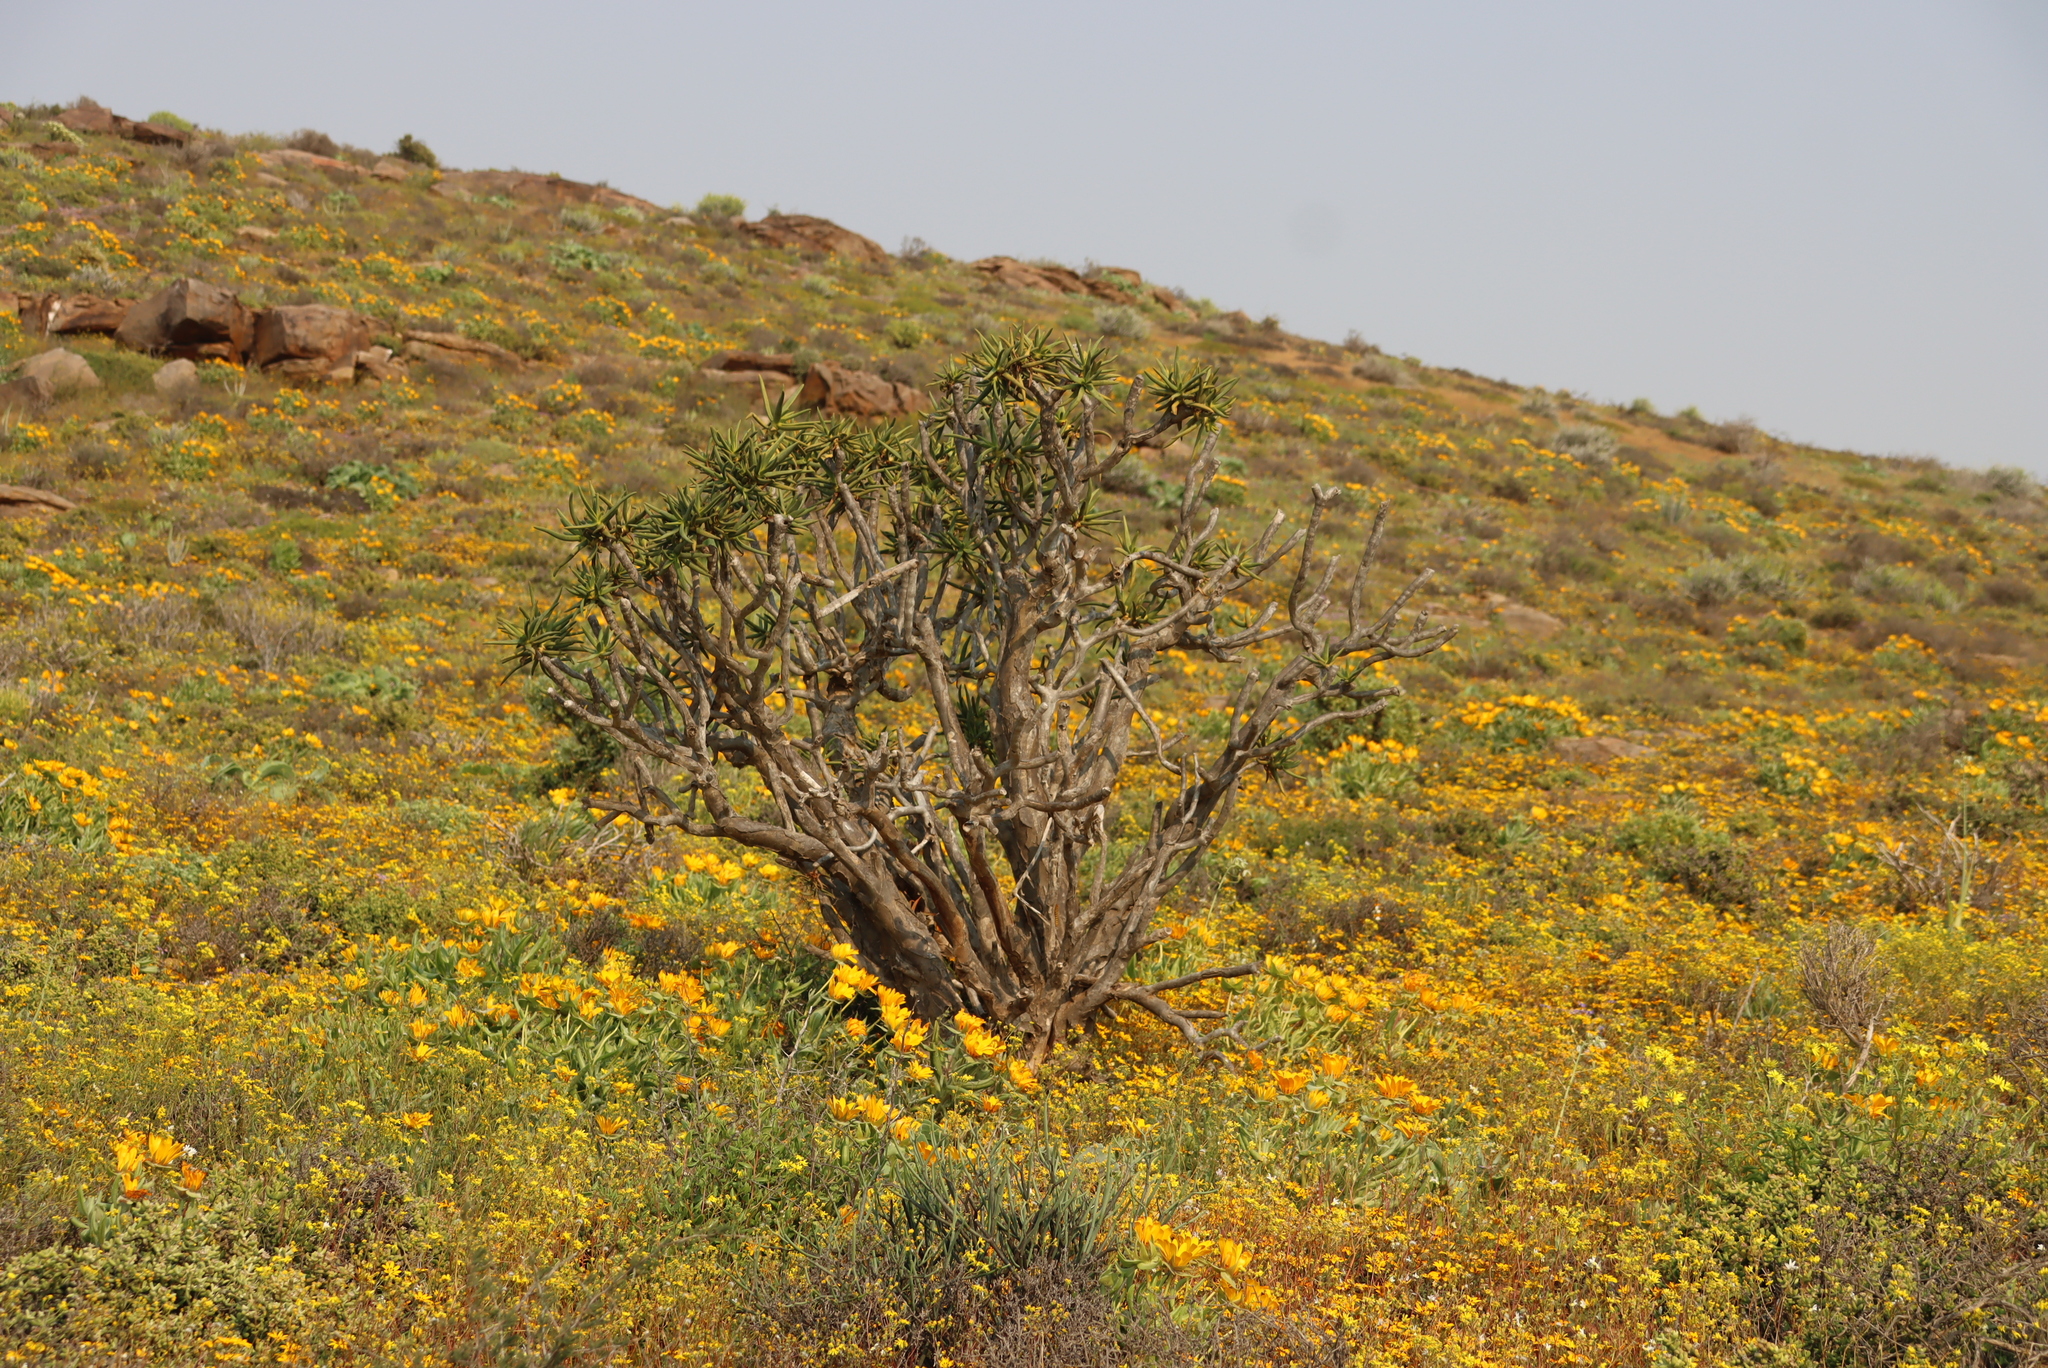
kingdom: Plantae
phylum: Tracheophyta
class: Liliopsida
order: Asparagales
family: Asphodelaceae
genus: Aloidendron
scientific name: Aloidendron ramosissimum
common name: Bush quiver tree
